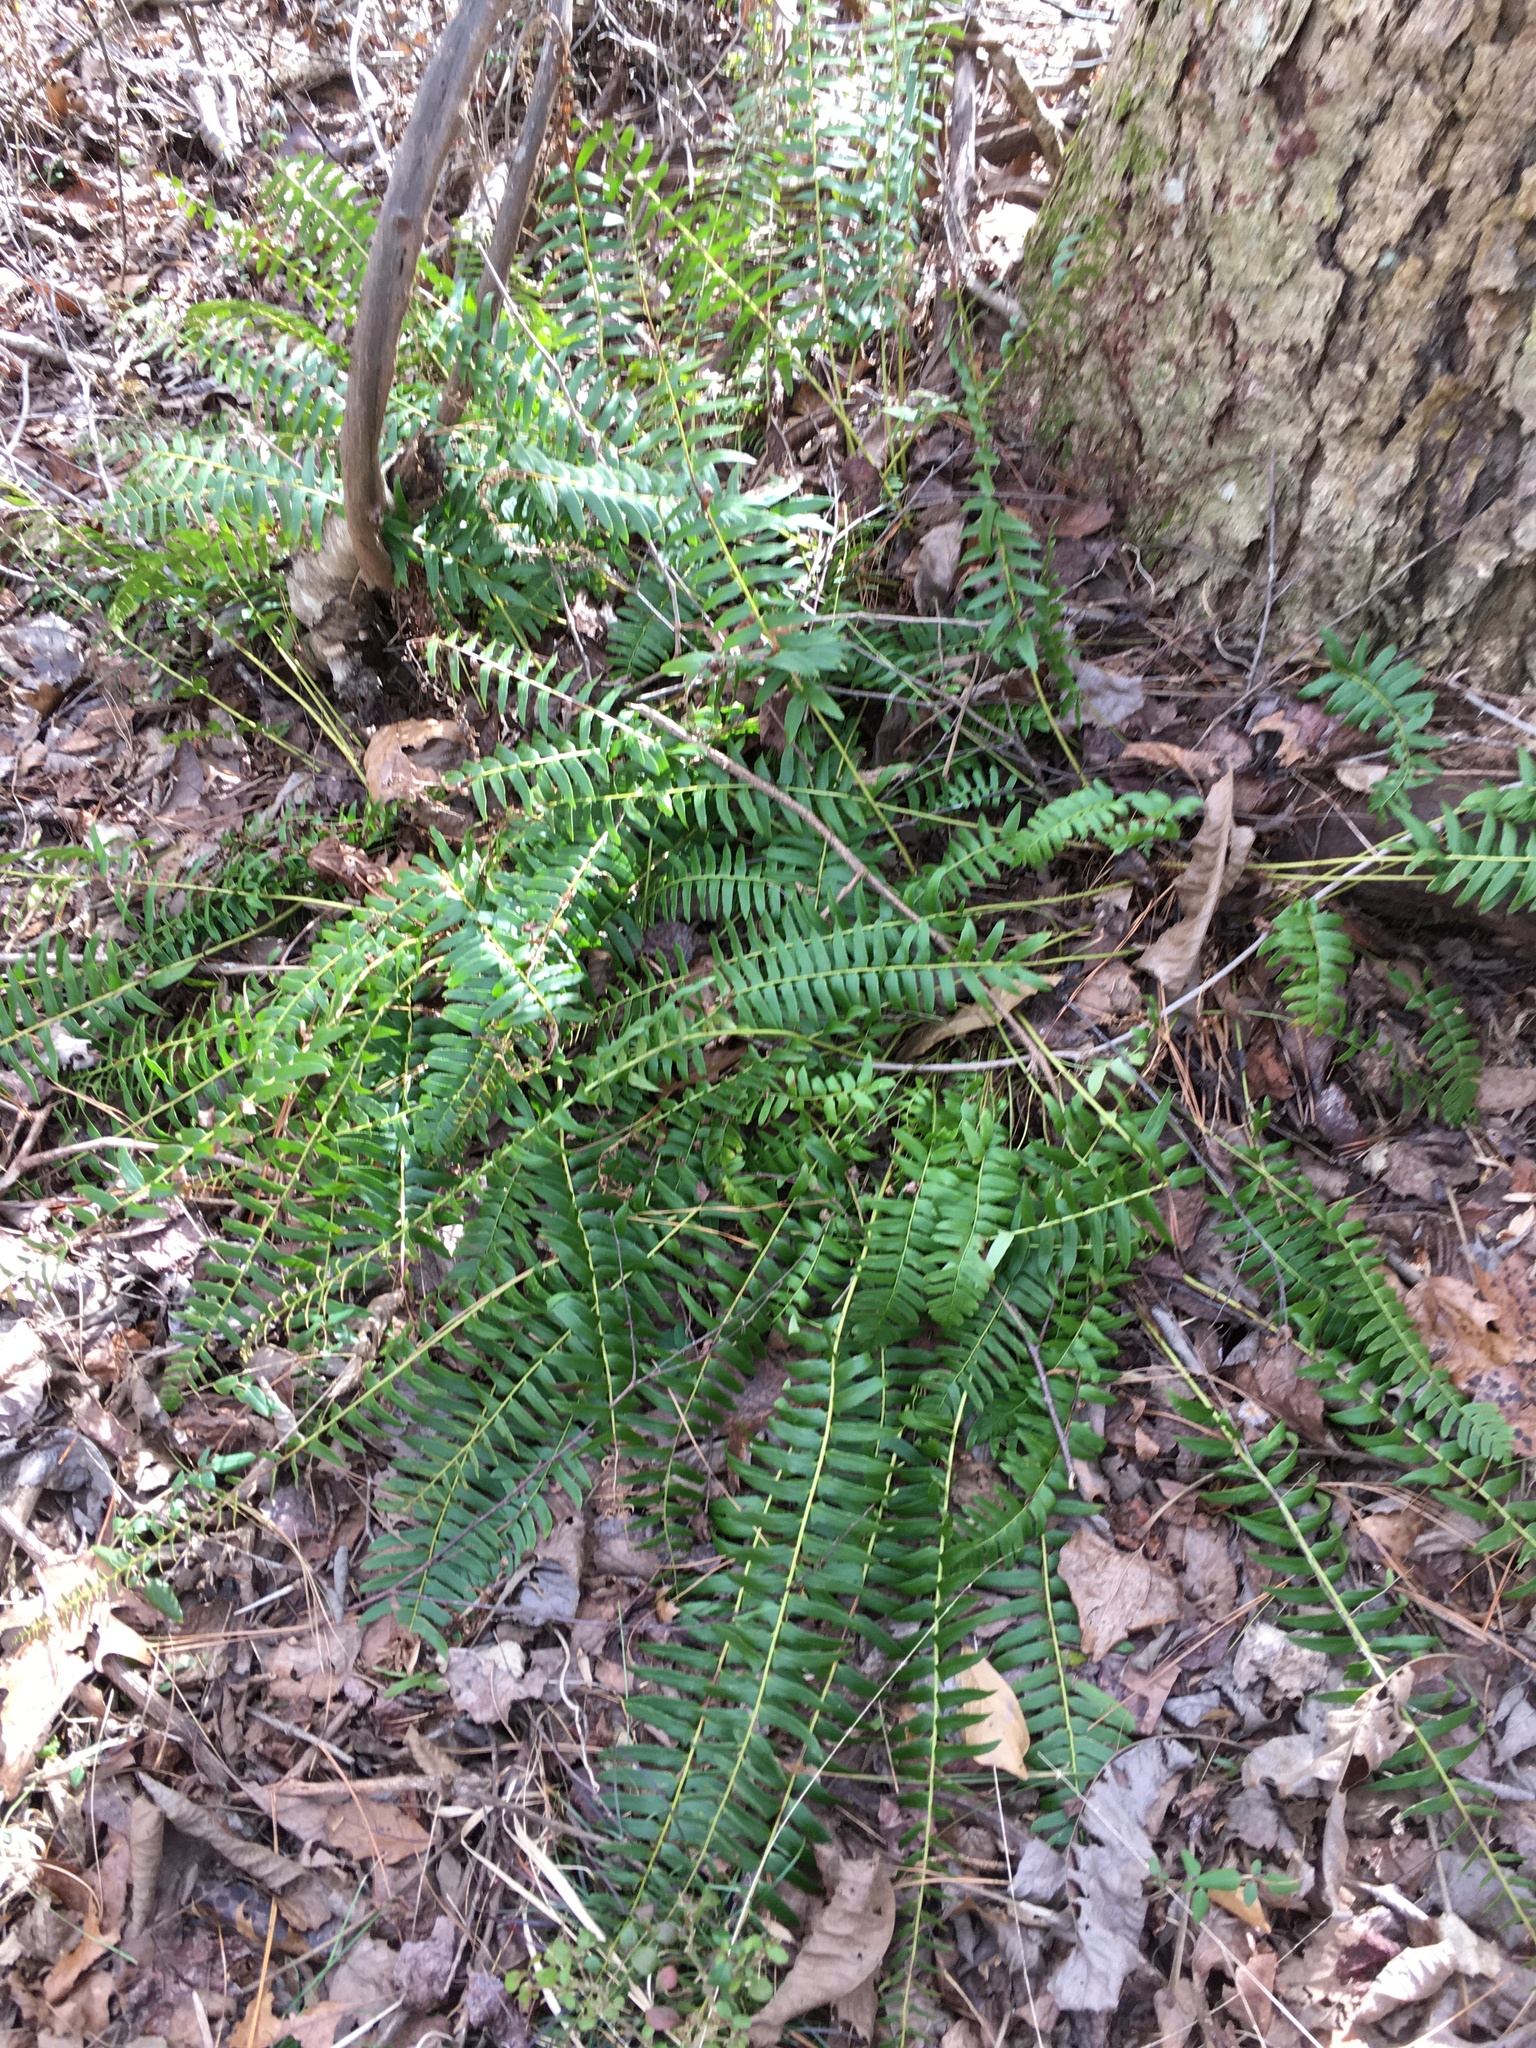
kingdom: Plantae
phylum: Tracheophyta
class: Polypodiopsida
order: Polypodiales
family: Dryopteridaceae
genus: Polystichum
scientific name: Polystichum acrostichoides
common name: Christmas fern
